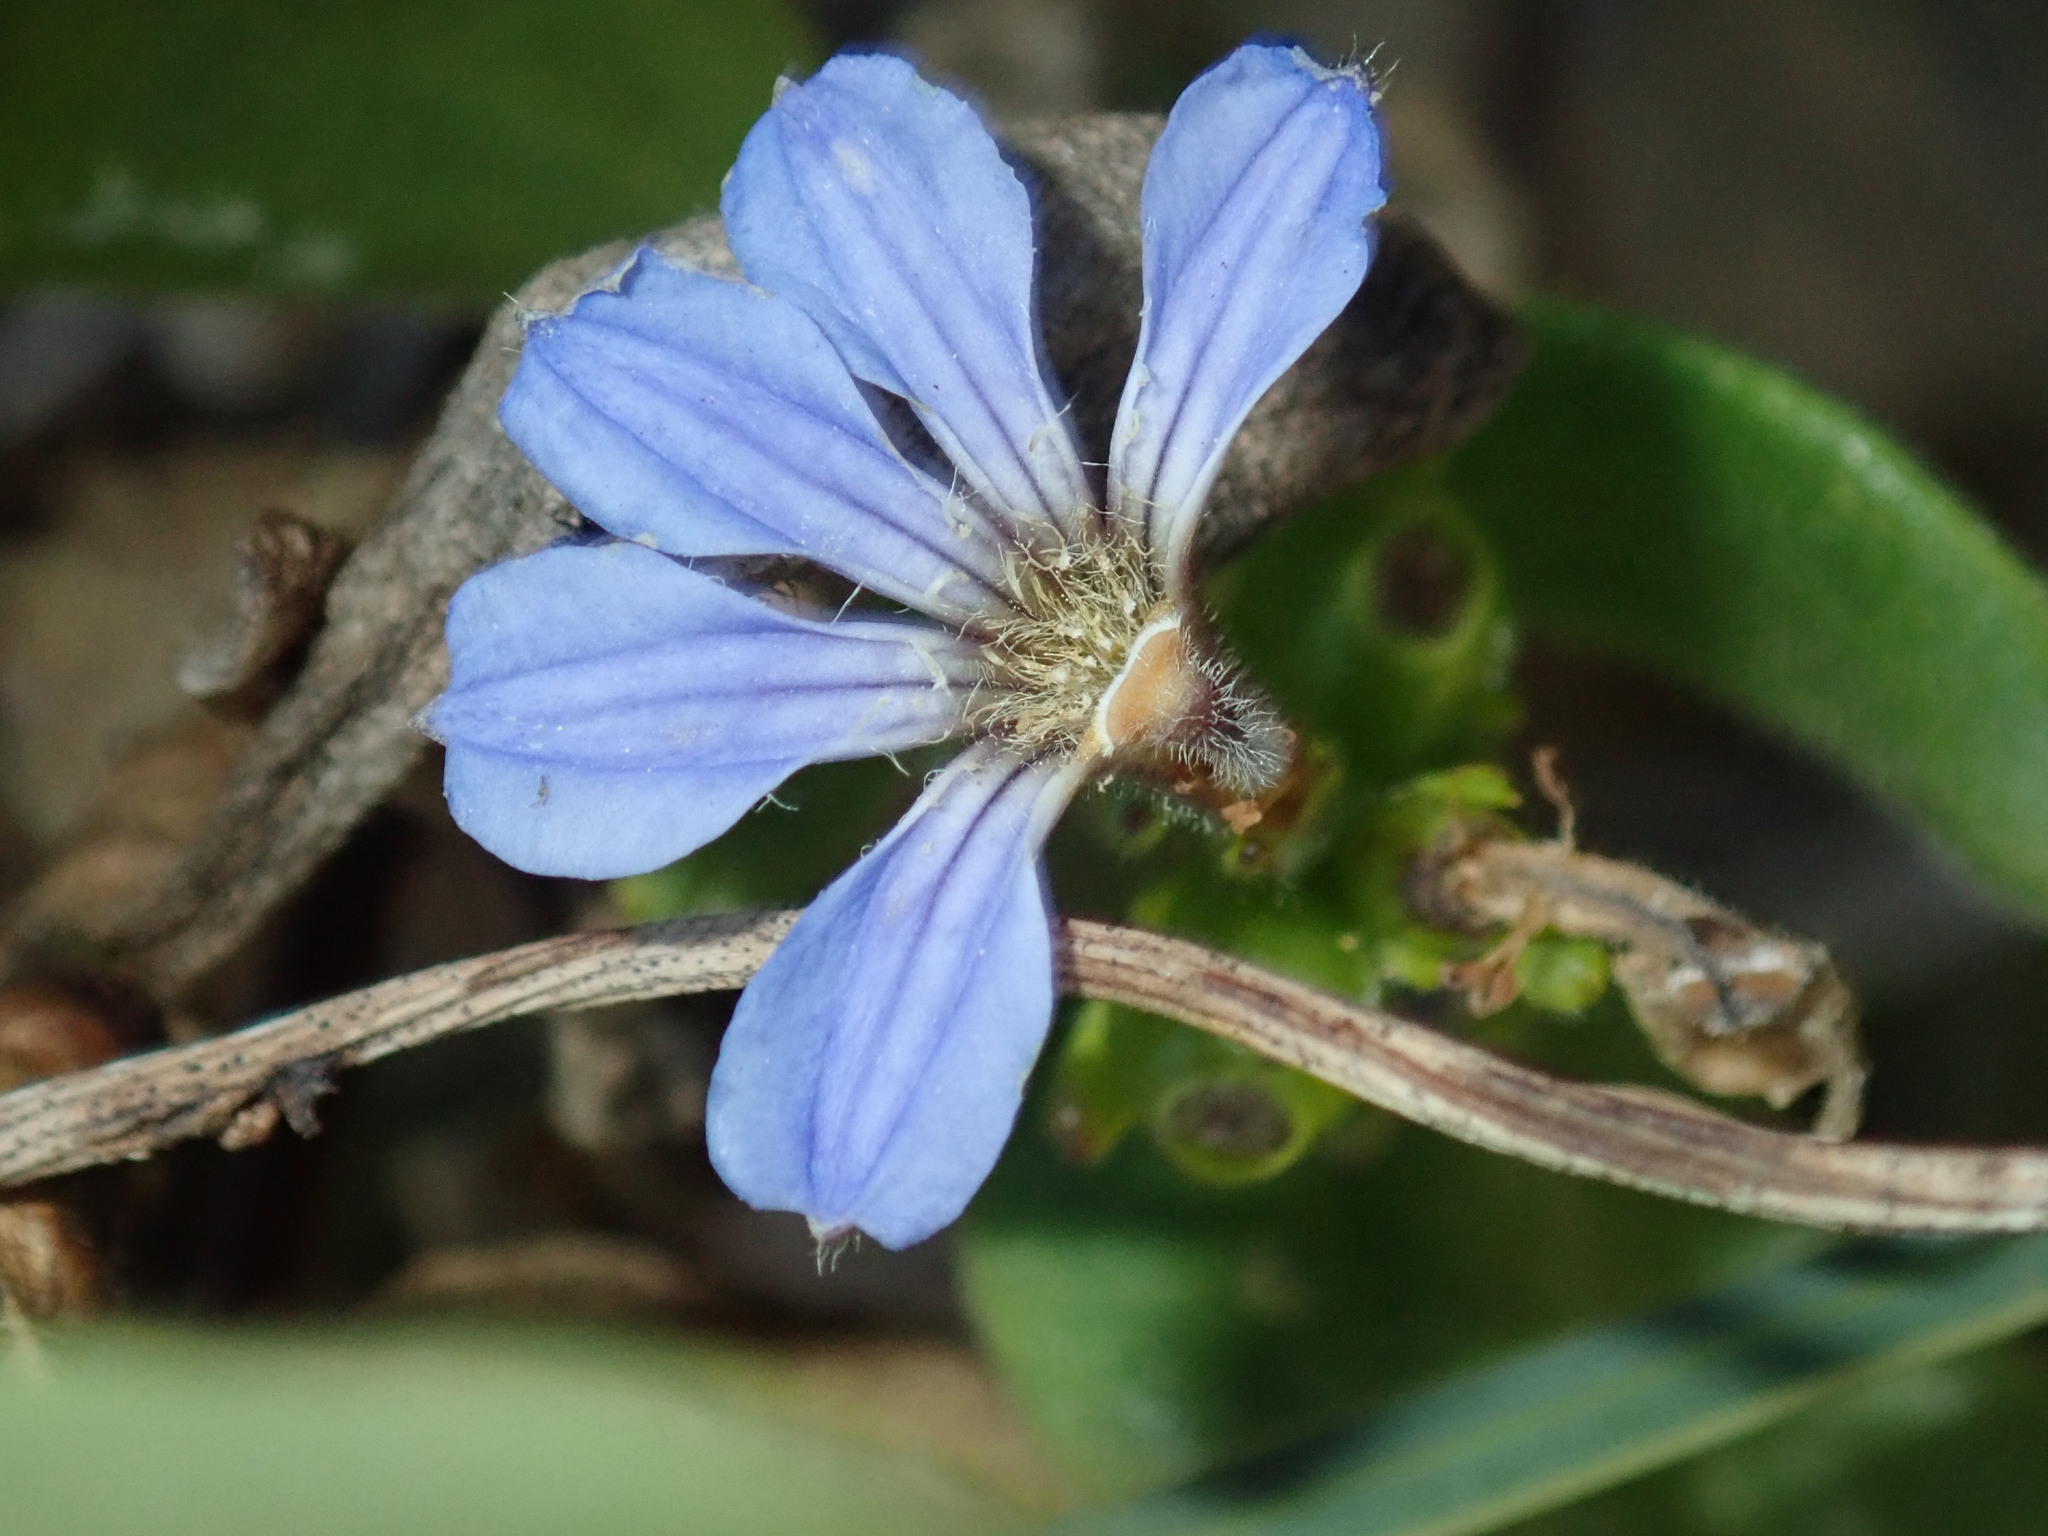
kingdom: Plantae
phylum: Tracheophyta
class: Magnoliopsida
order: Asterales
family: Goodeniaceae
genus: Scaevola
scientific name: Scaevola calendulacea
